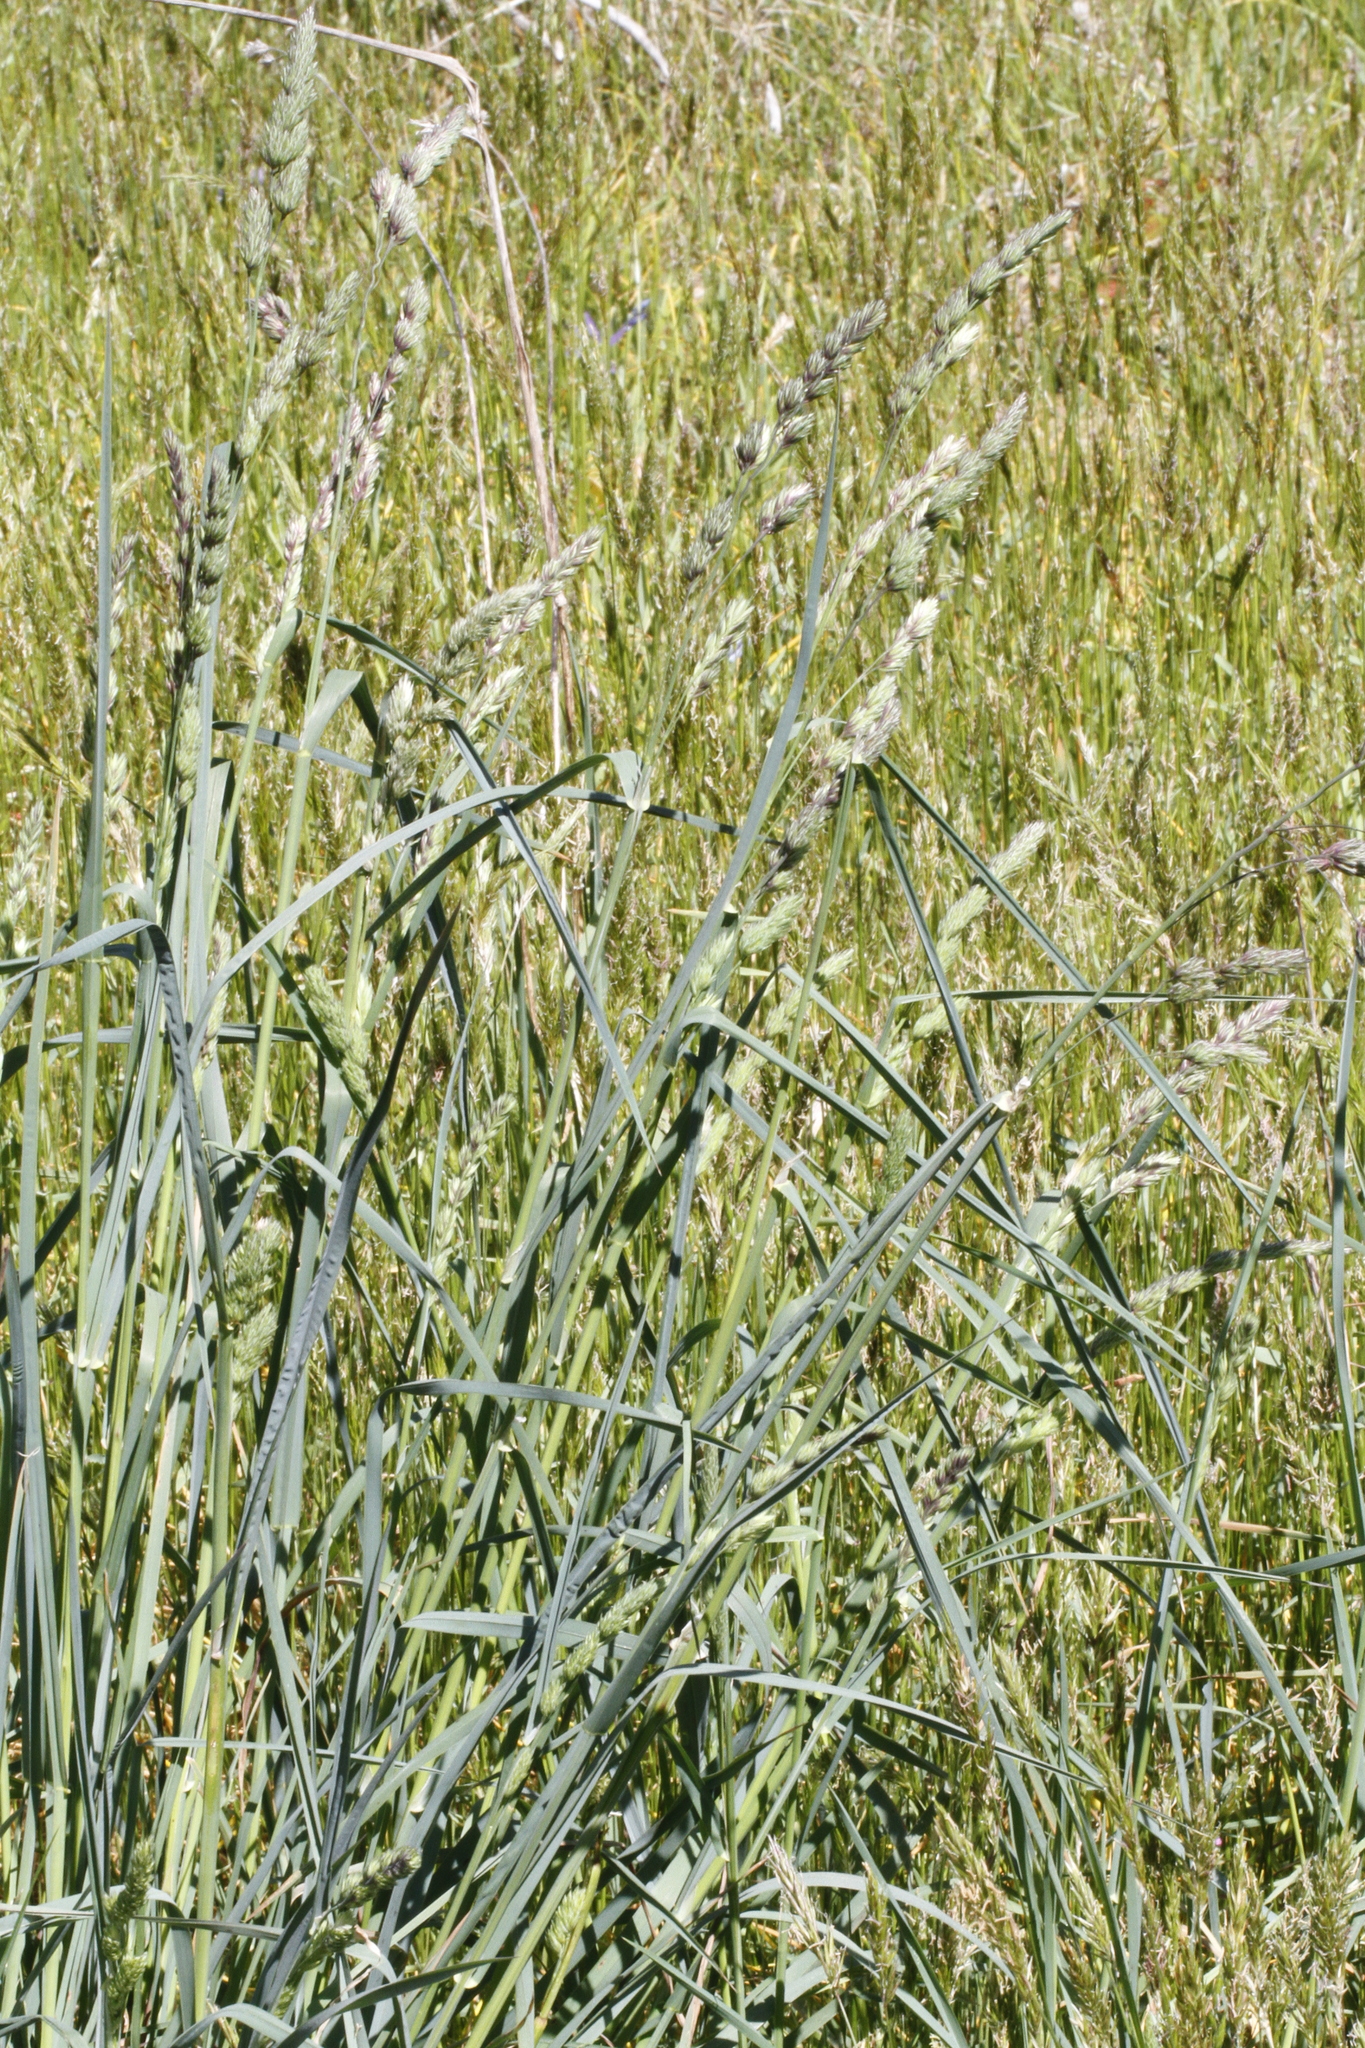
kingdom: Plantae
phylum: Tracheophyta
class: Liliopsida
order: Poales
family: Poaceae
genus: Dactylis
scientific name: Dactylis glomerata
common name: Orchardgrass
